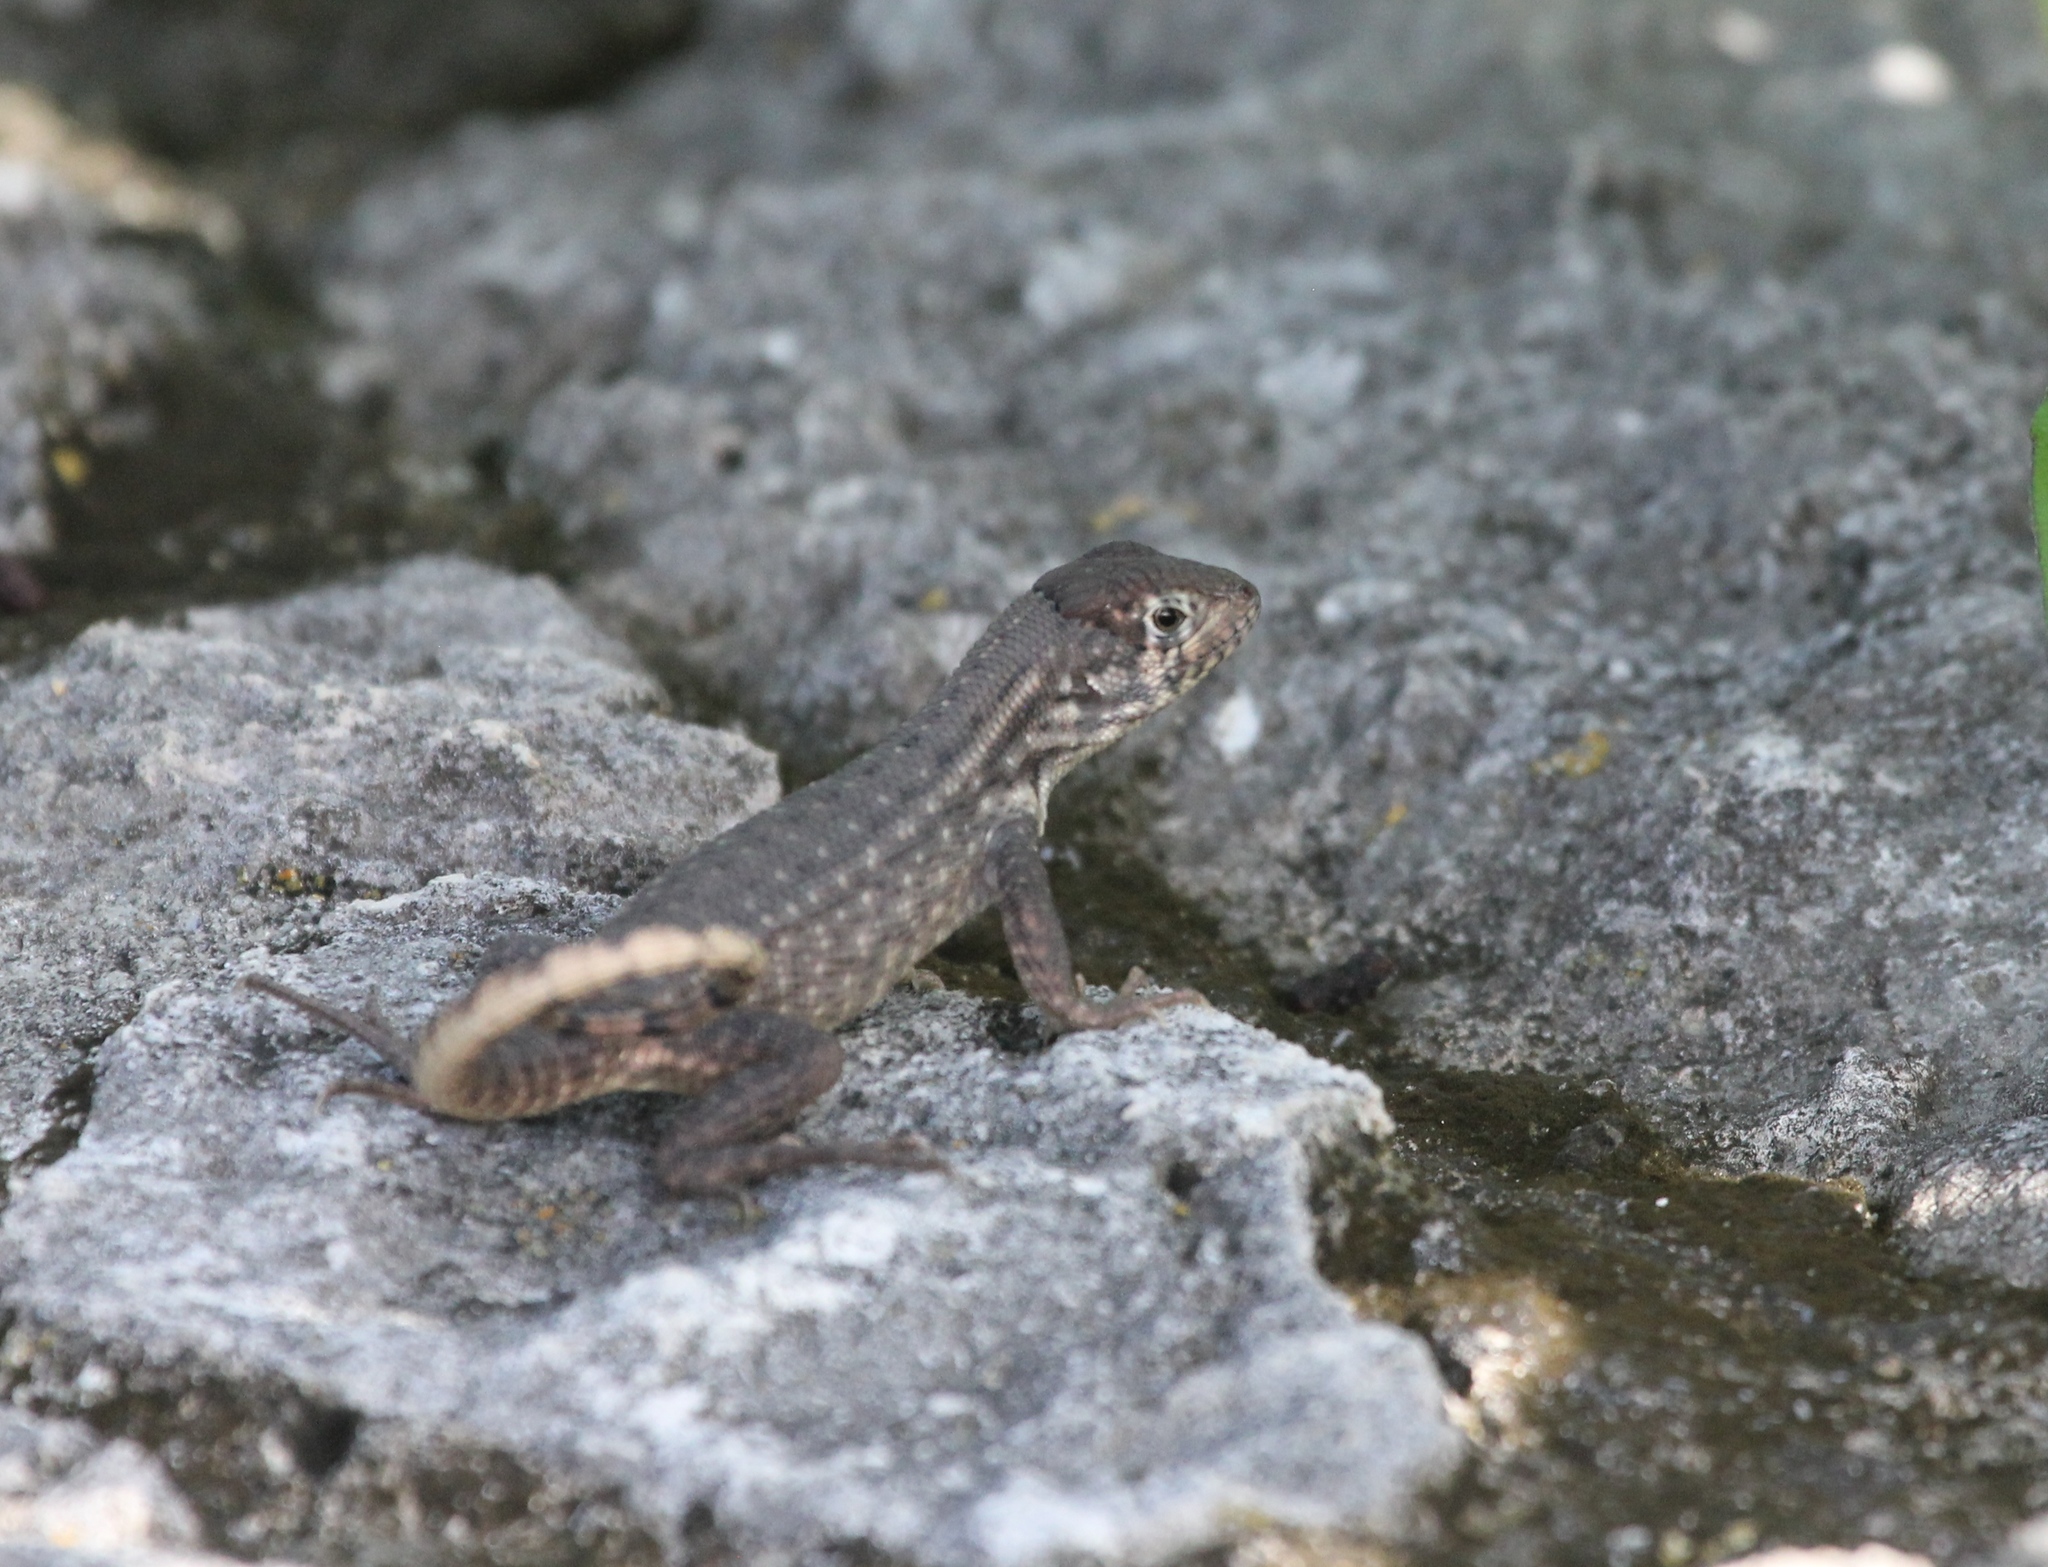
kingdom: Animalia
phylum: Chordata
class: Squamata
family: Leiocephalidae
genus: Leiocephalus
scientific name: Leiocephalus carinatus
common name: Northern curly-tailed lizard
